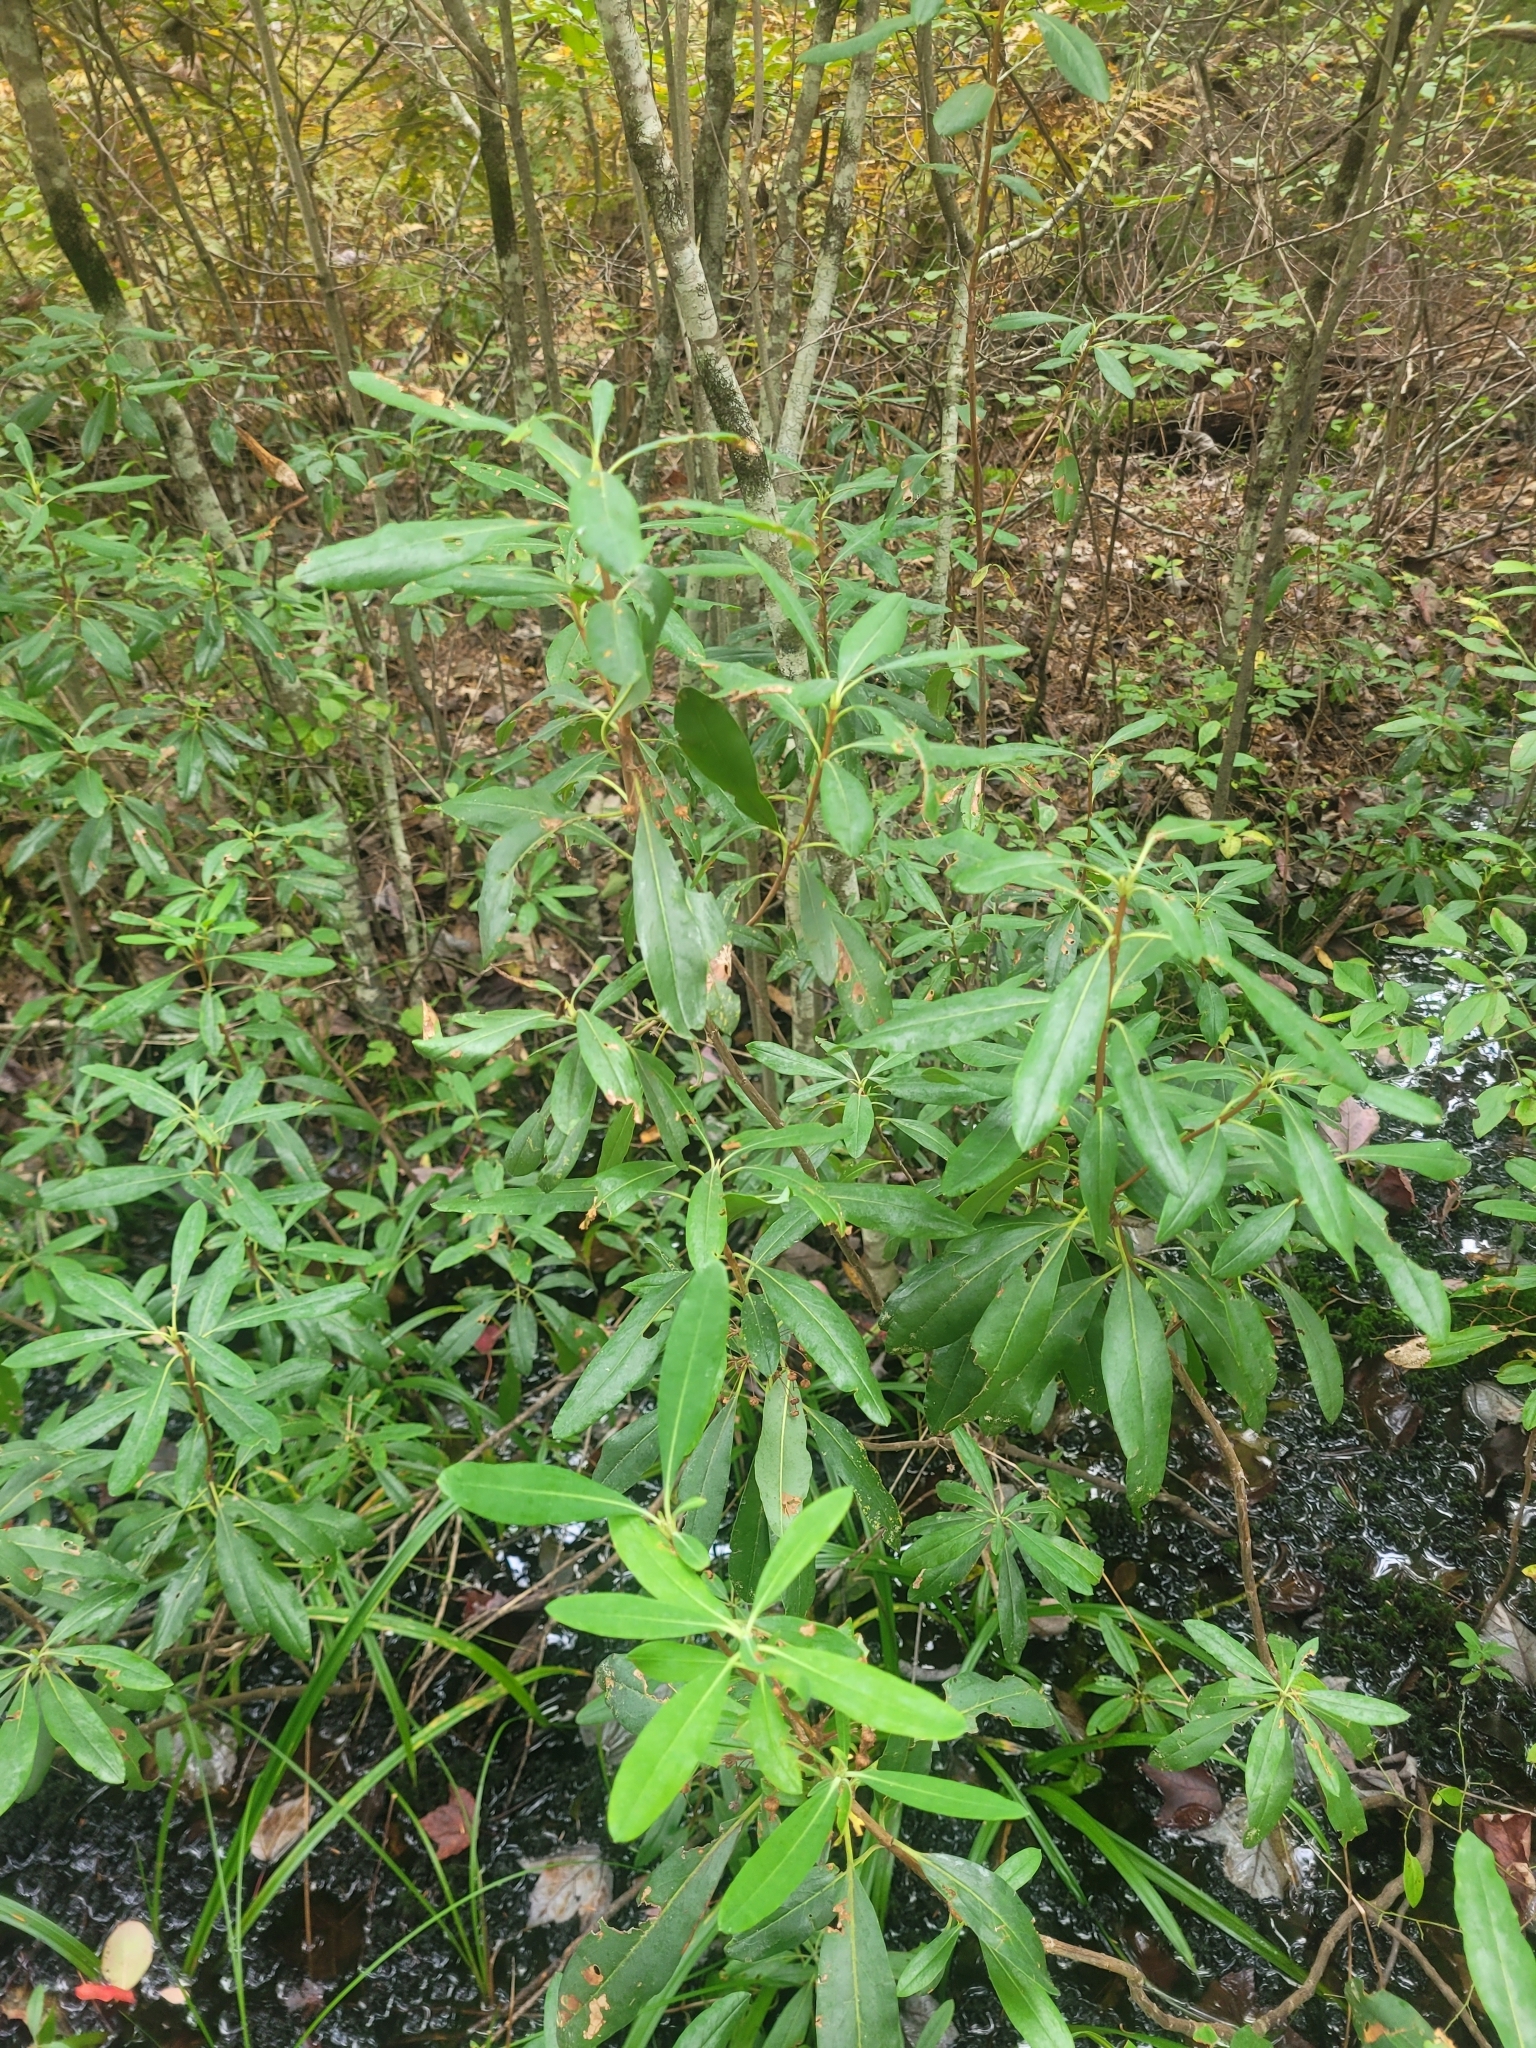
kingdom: Plantae
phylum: Tracheophyta
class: Magnoliopsida
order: Ericales
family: Ericaceae
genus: Kalmia
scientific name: Kalmia angustifolia
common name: Sheep-laurel
